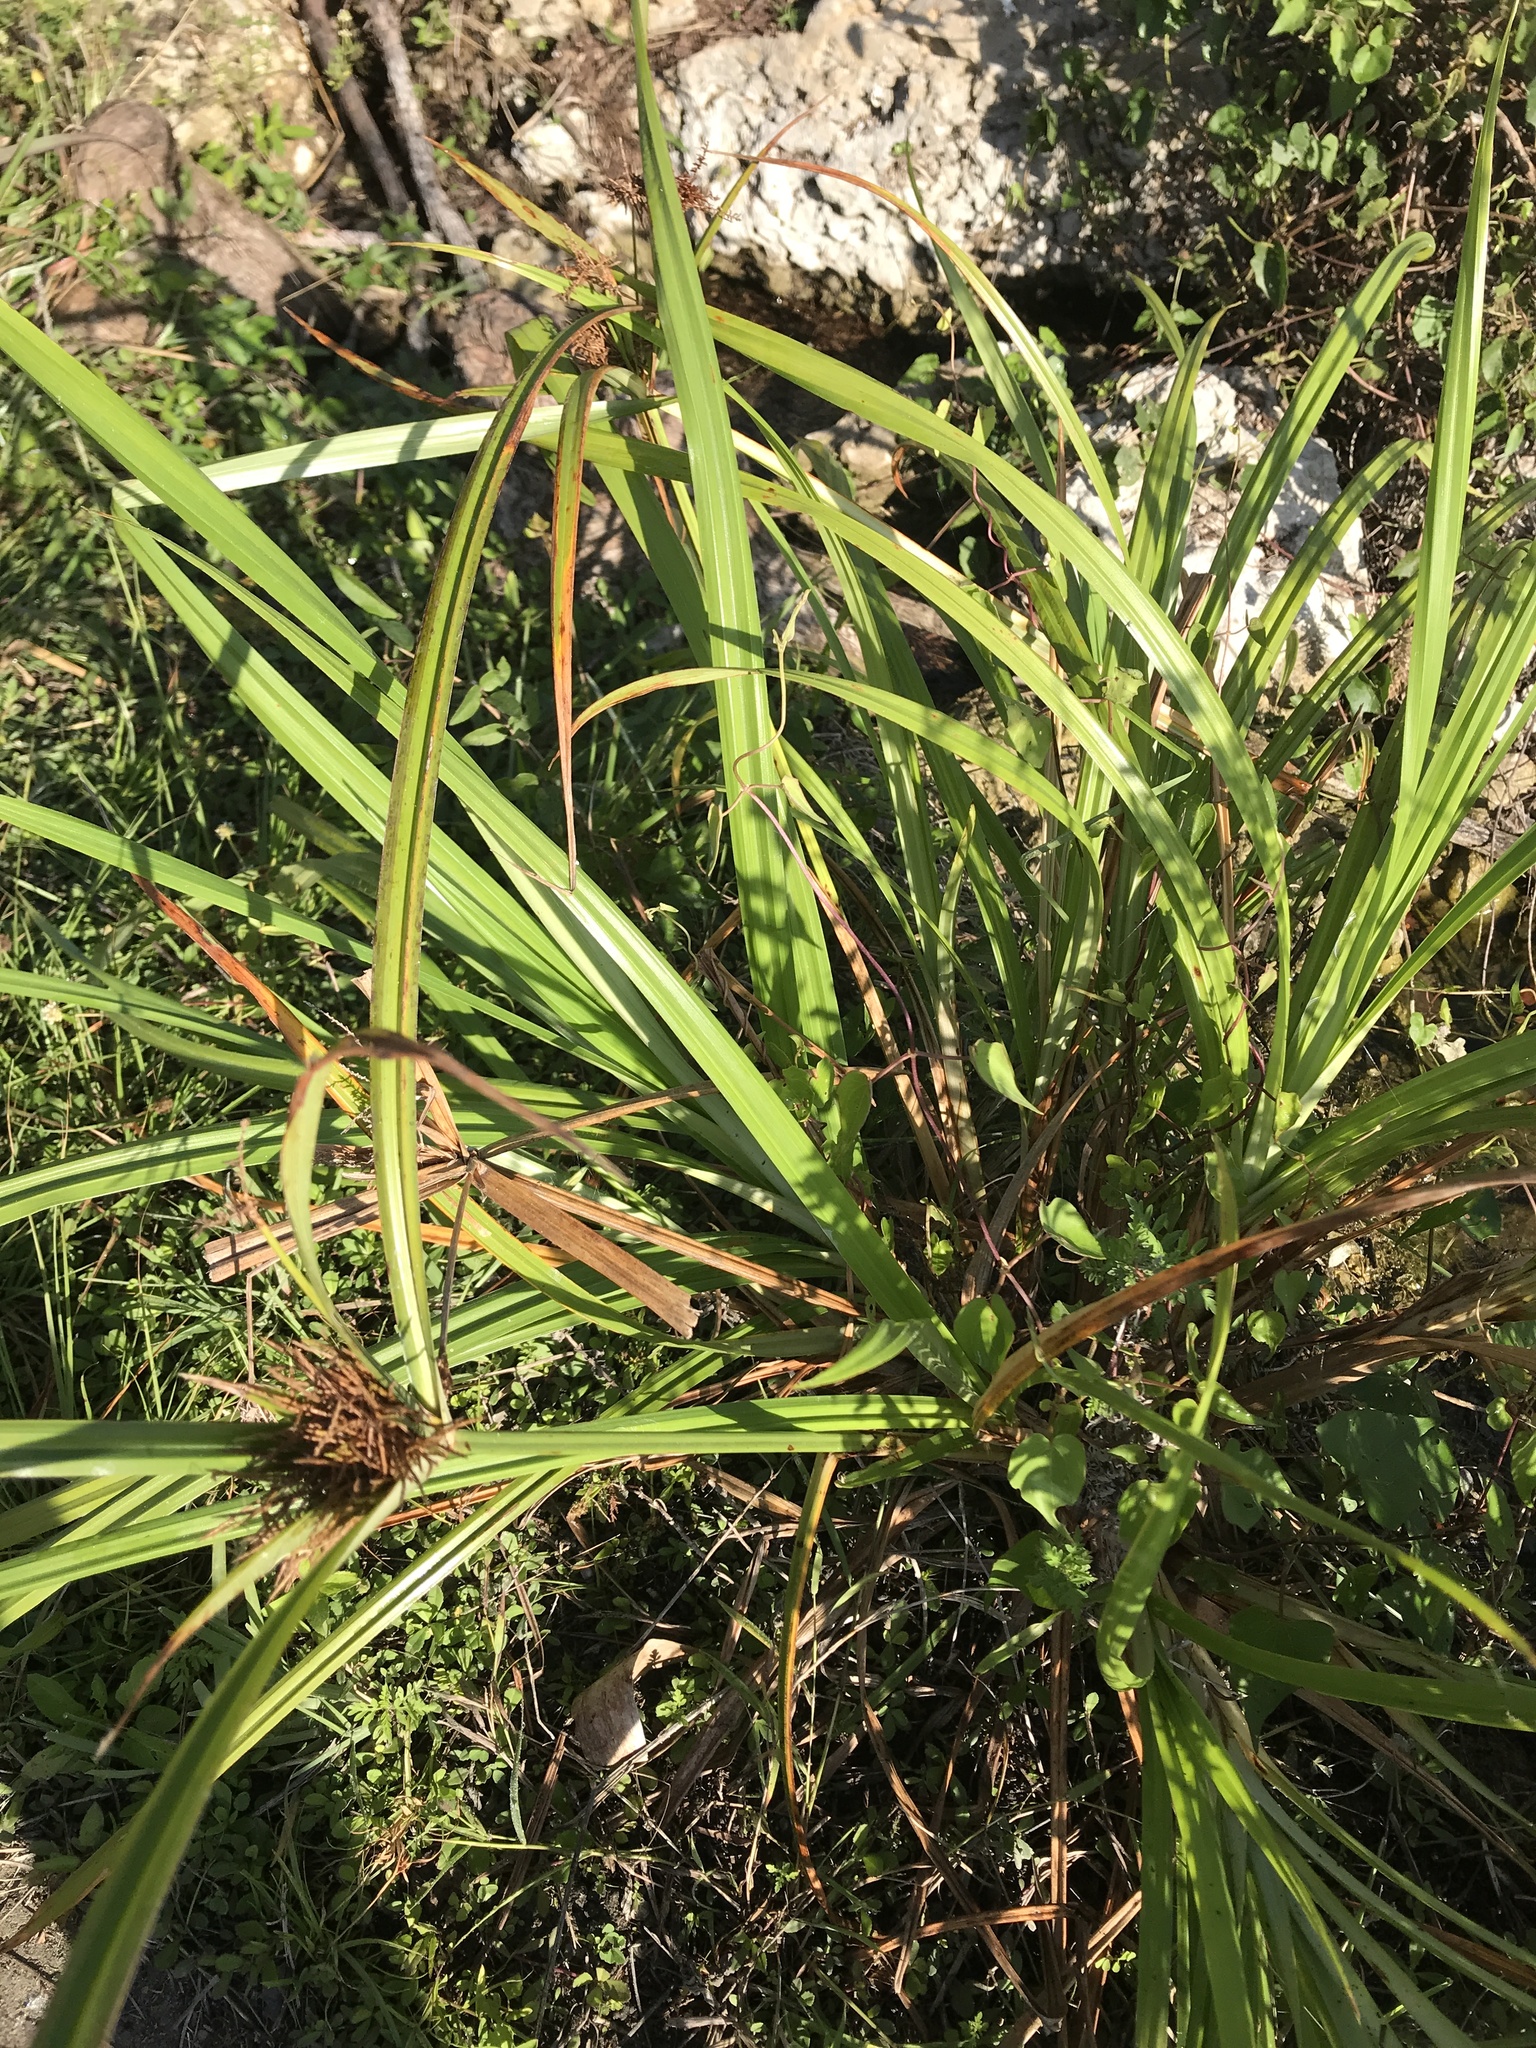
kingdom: Plantae
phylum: Tracheophyta
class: Liliopsida
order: Poales
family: Cyperaceae
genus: Cyperus
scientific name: Cyperus odoratus
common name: Fragrant flatsedge
